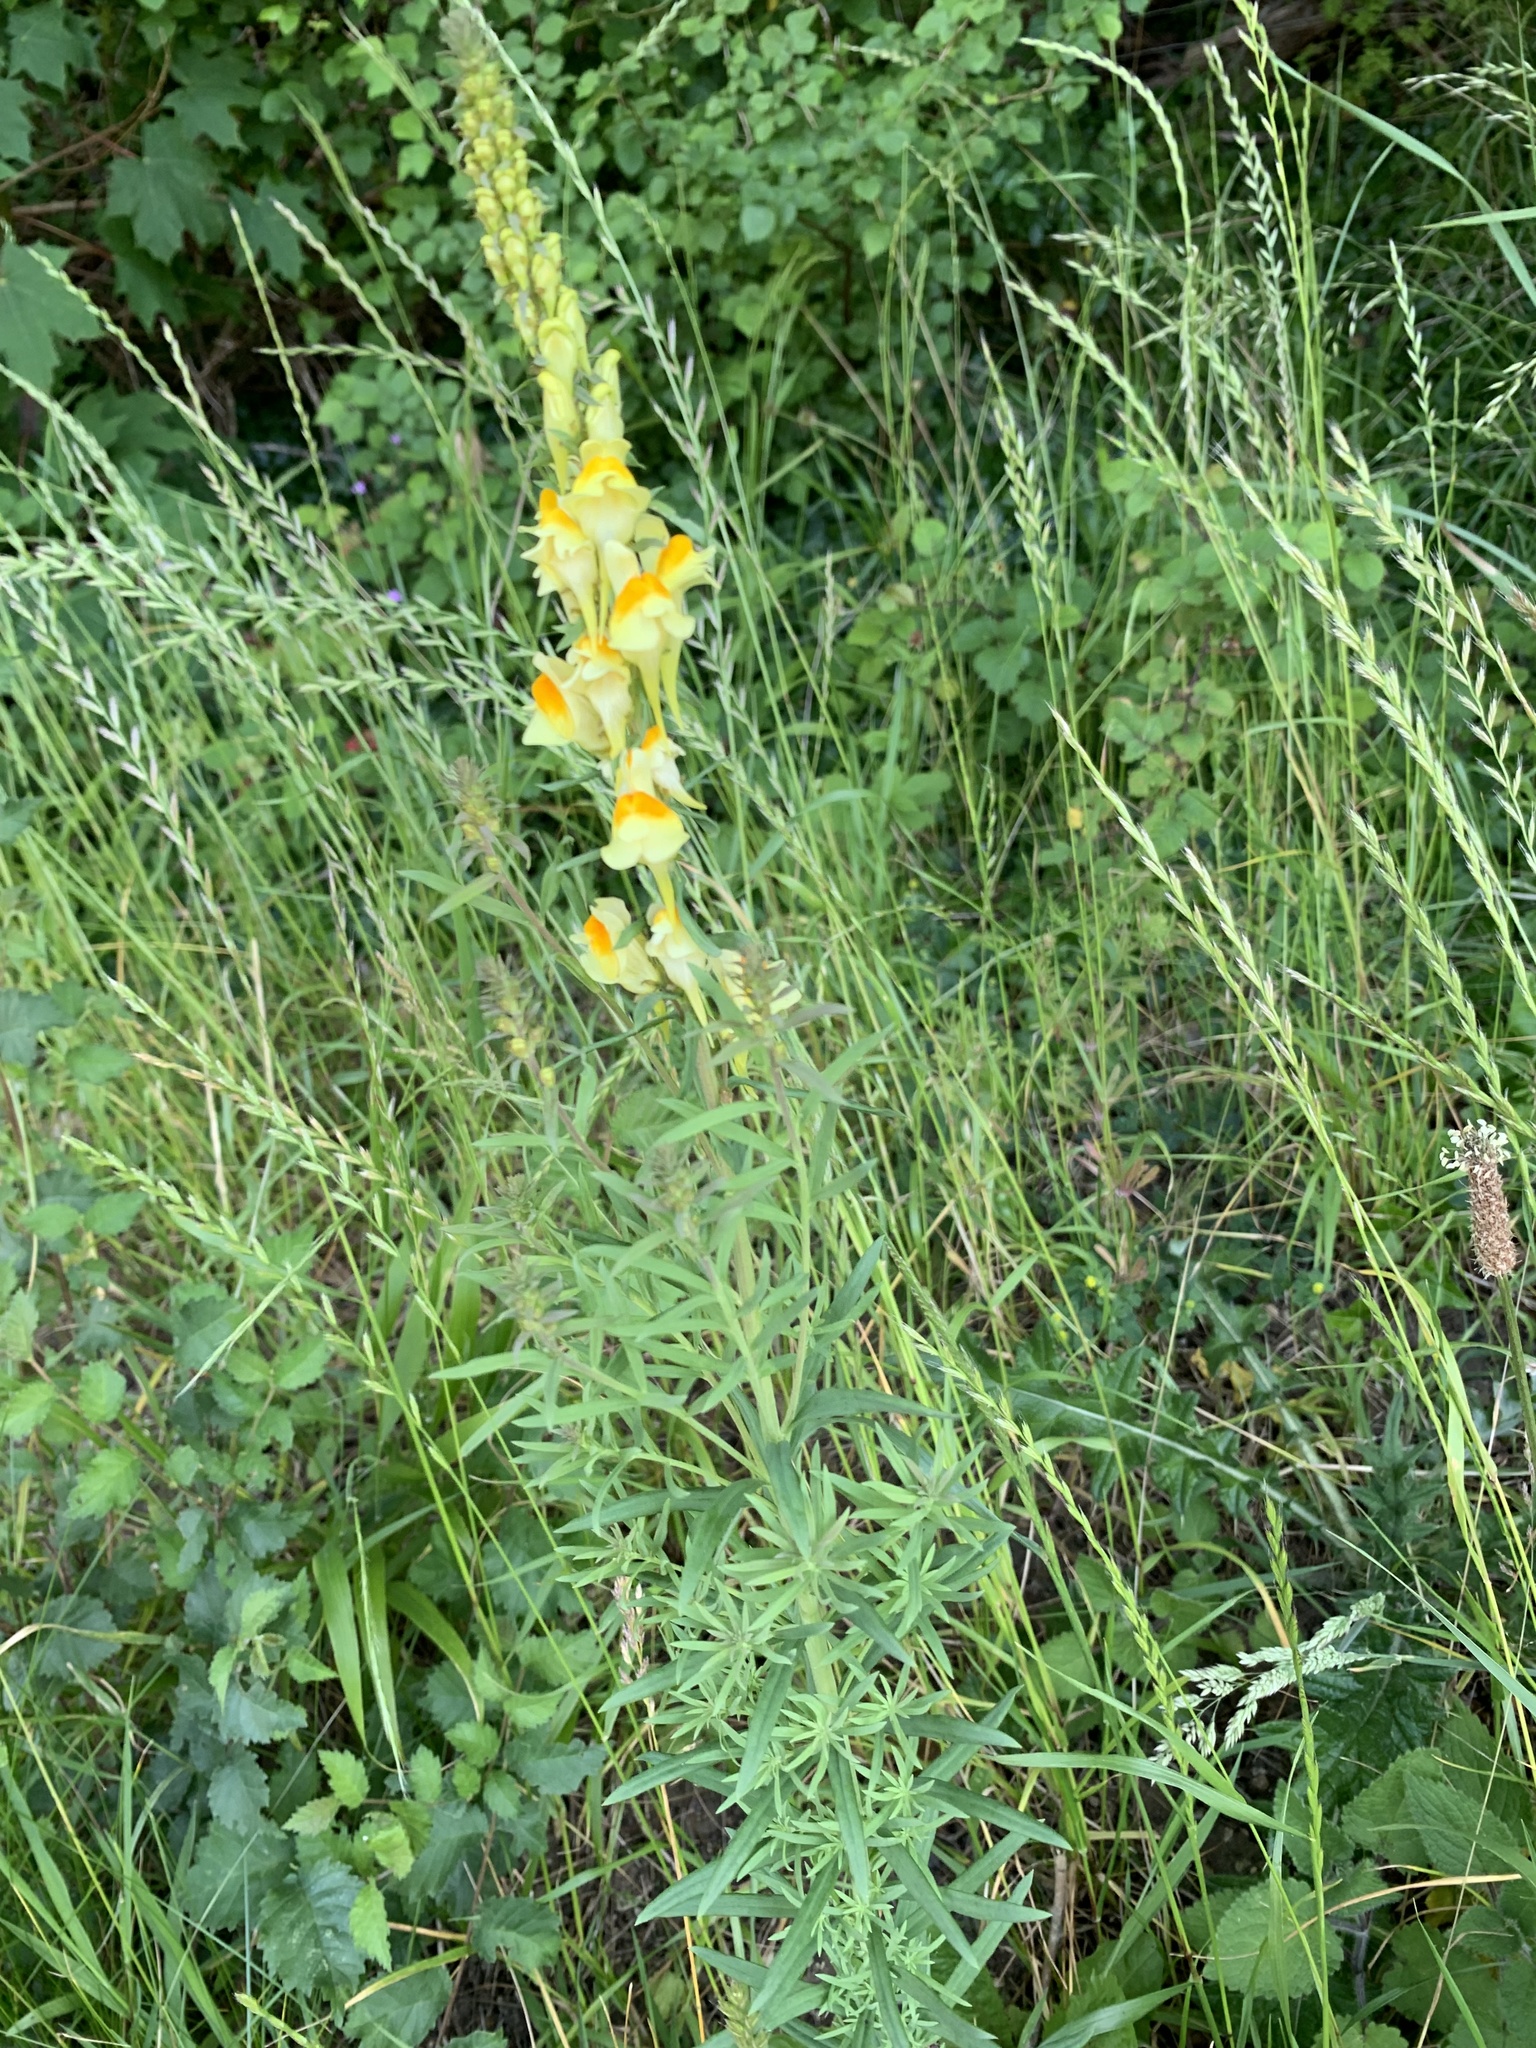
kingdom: Plantae
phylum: Tracheophyta
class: Magnoliopsida
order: Lamiales
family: Plantaginaceae
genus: Linaria
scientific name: Linaria vulgaris
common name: Butter and eggs
